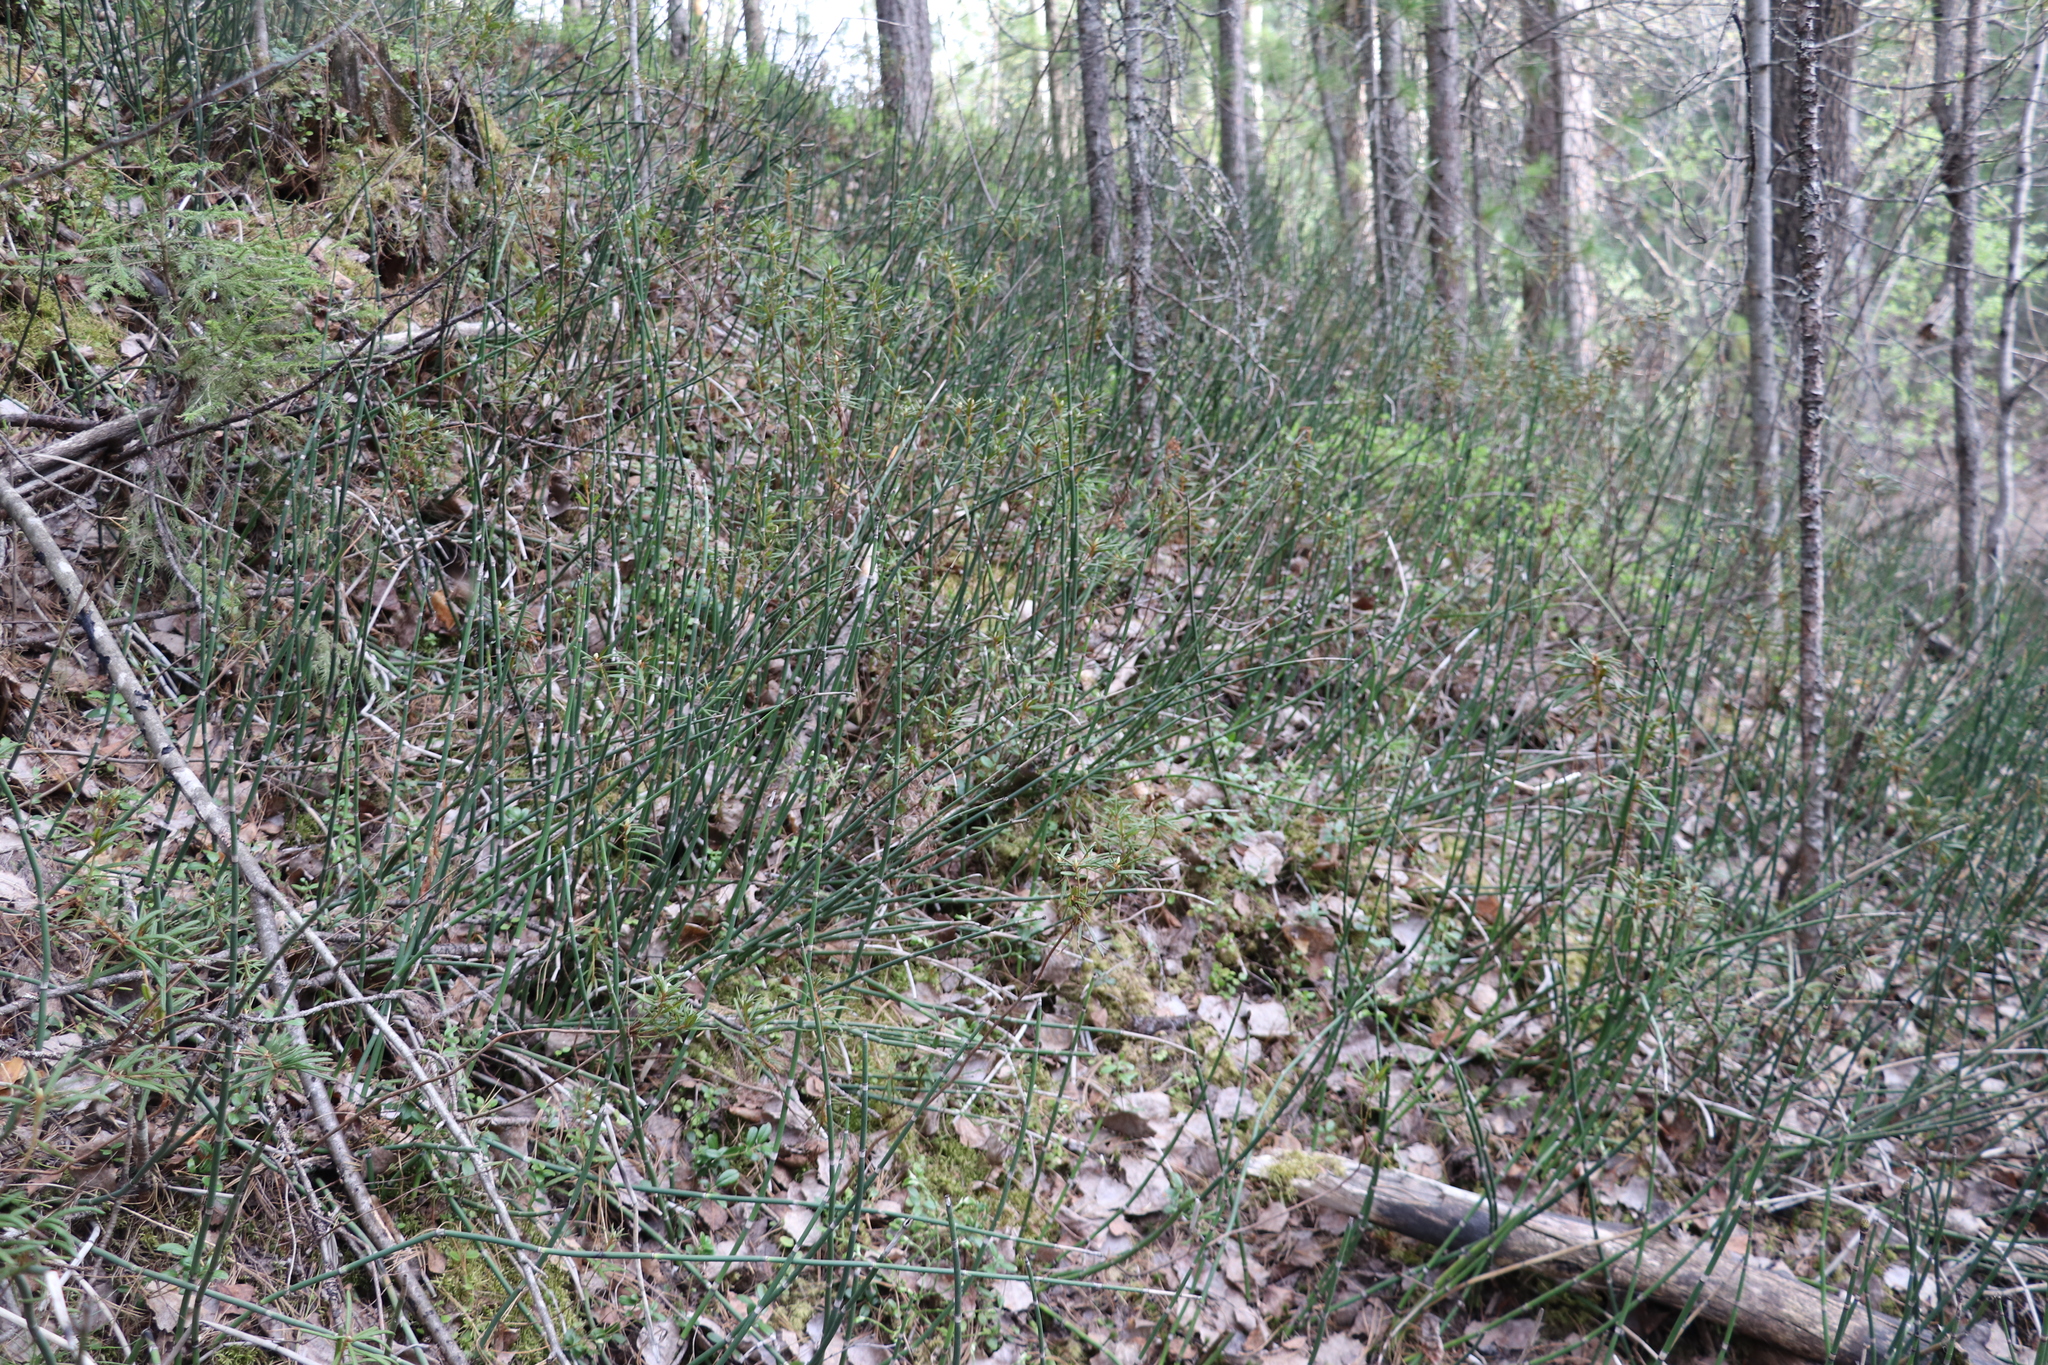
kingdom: Plantae
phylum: Tracheophyta
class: Polypodiopsida
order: Equisetales
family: Equisetaceae
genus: Equisetum
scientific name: Equisetum hyemale
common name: Rough horsetail
